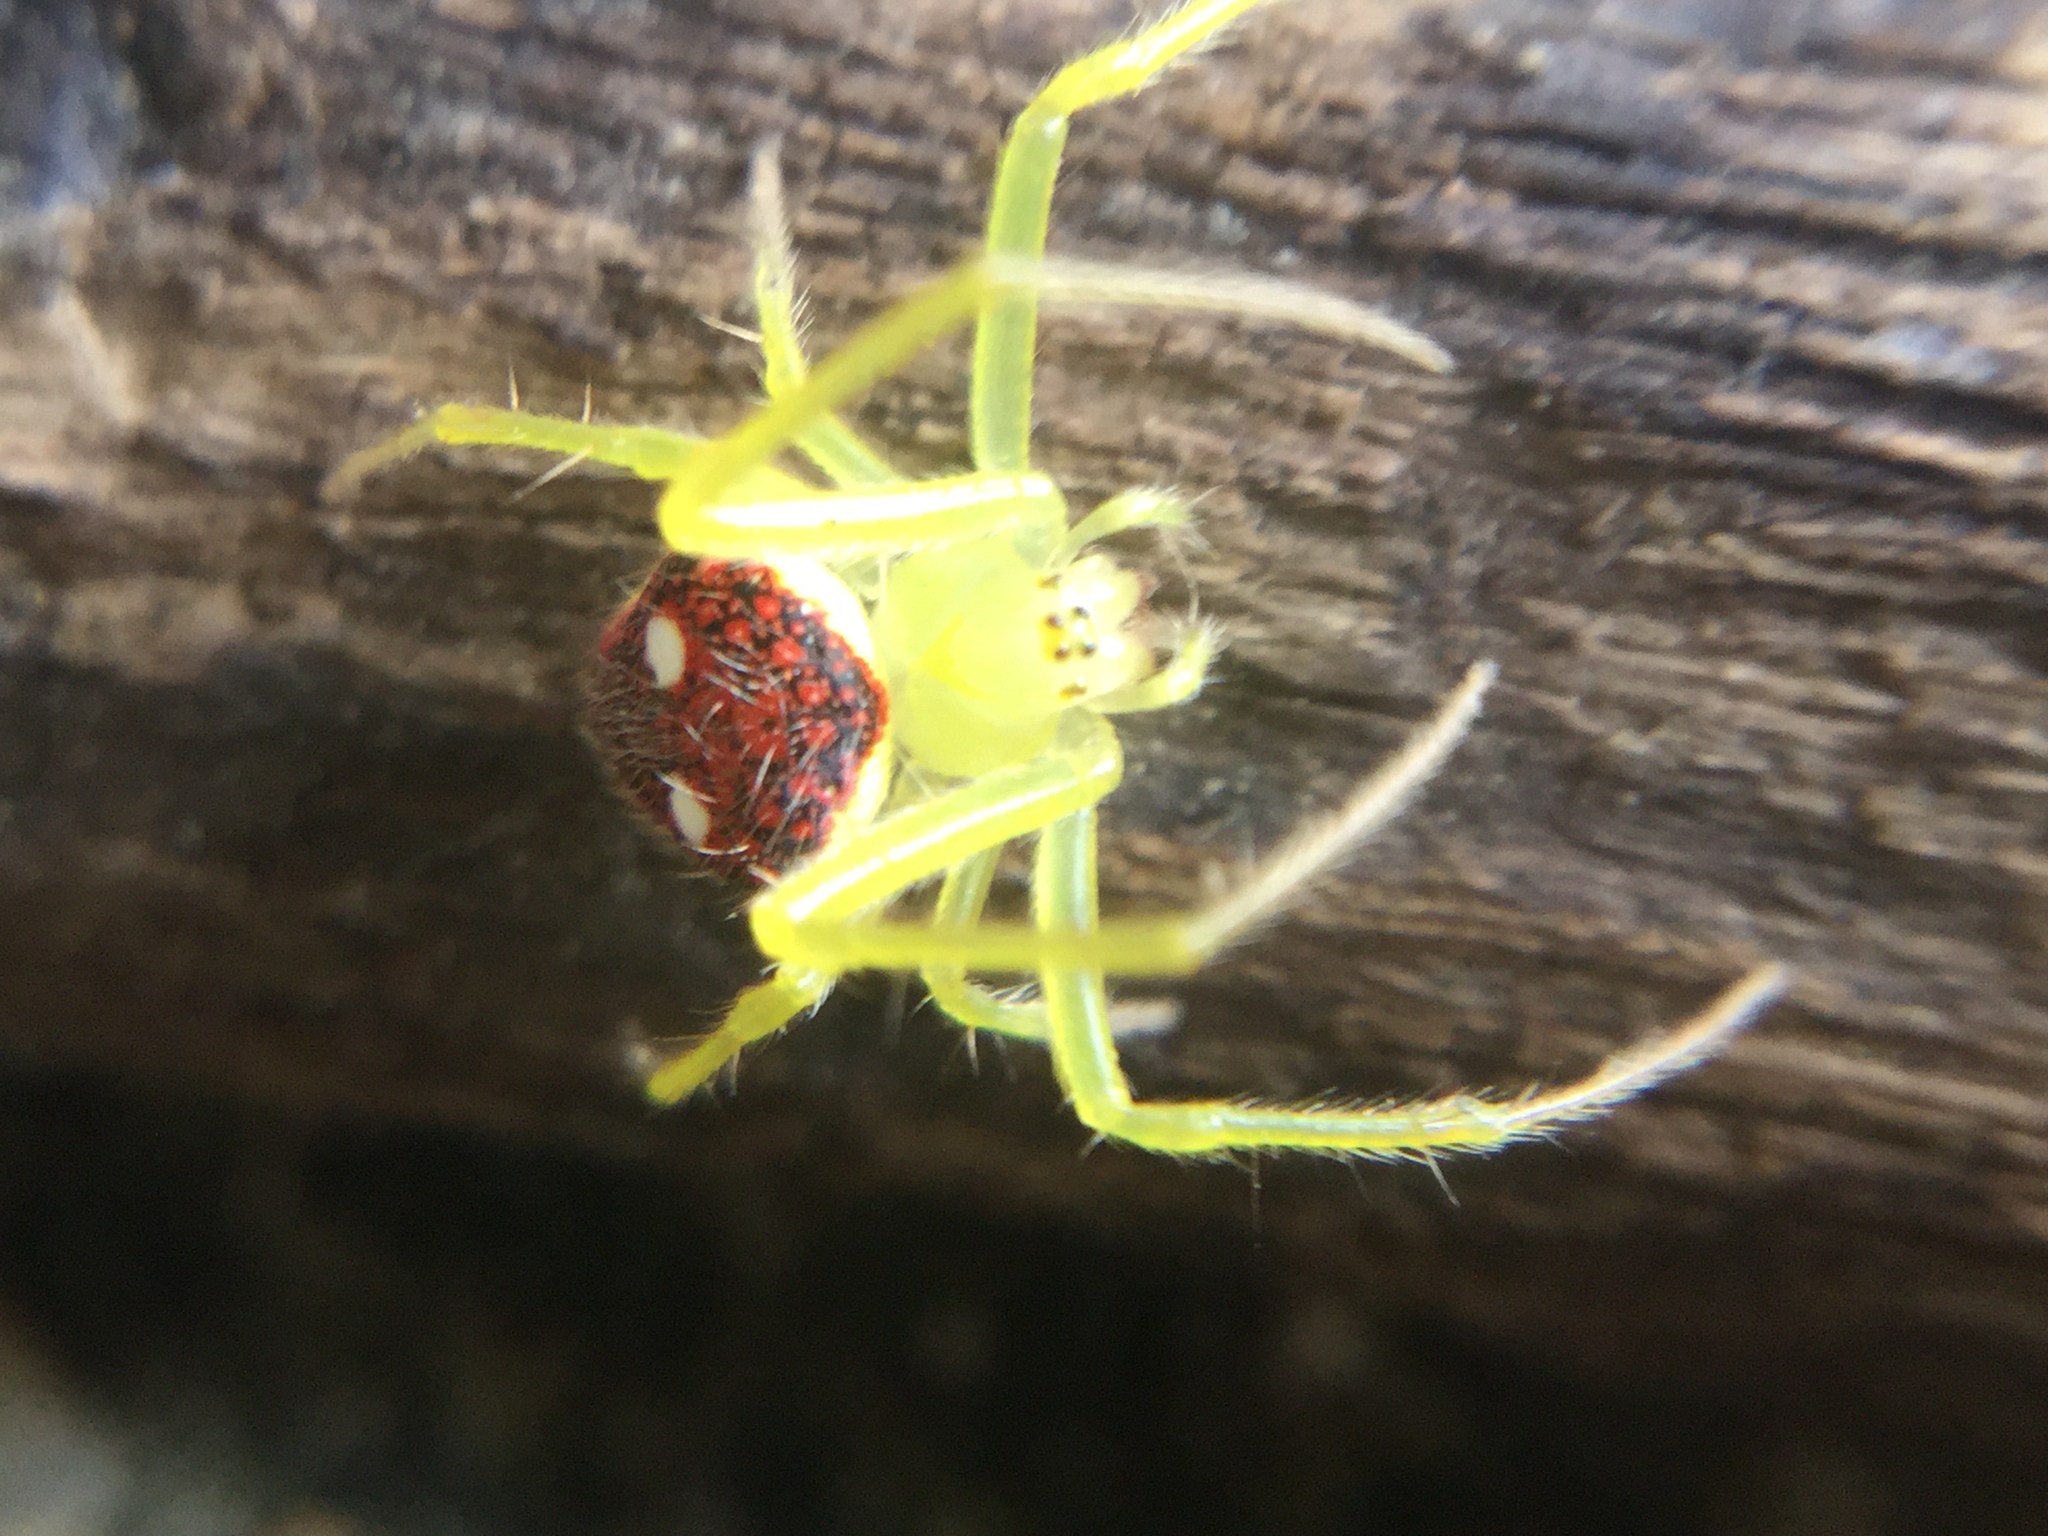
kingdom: Animalia
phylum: Arthropoda
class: Arachnida
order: Araneae
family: Araneidae
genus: Araneus
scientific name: Araneus alboventris
